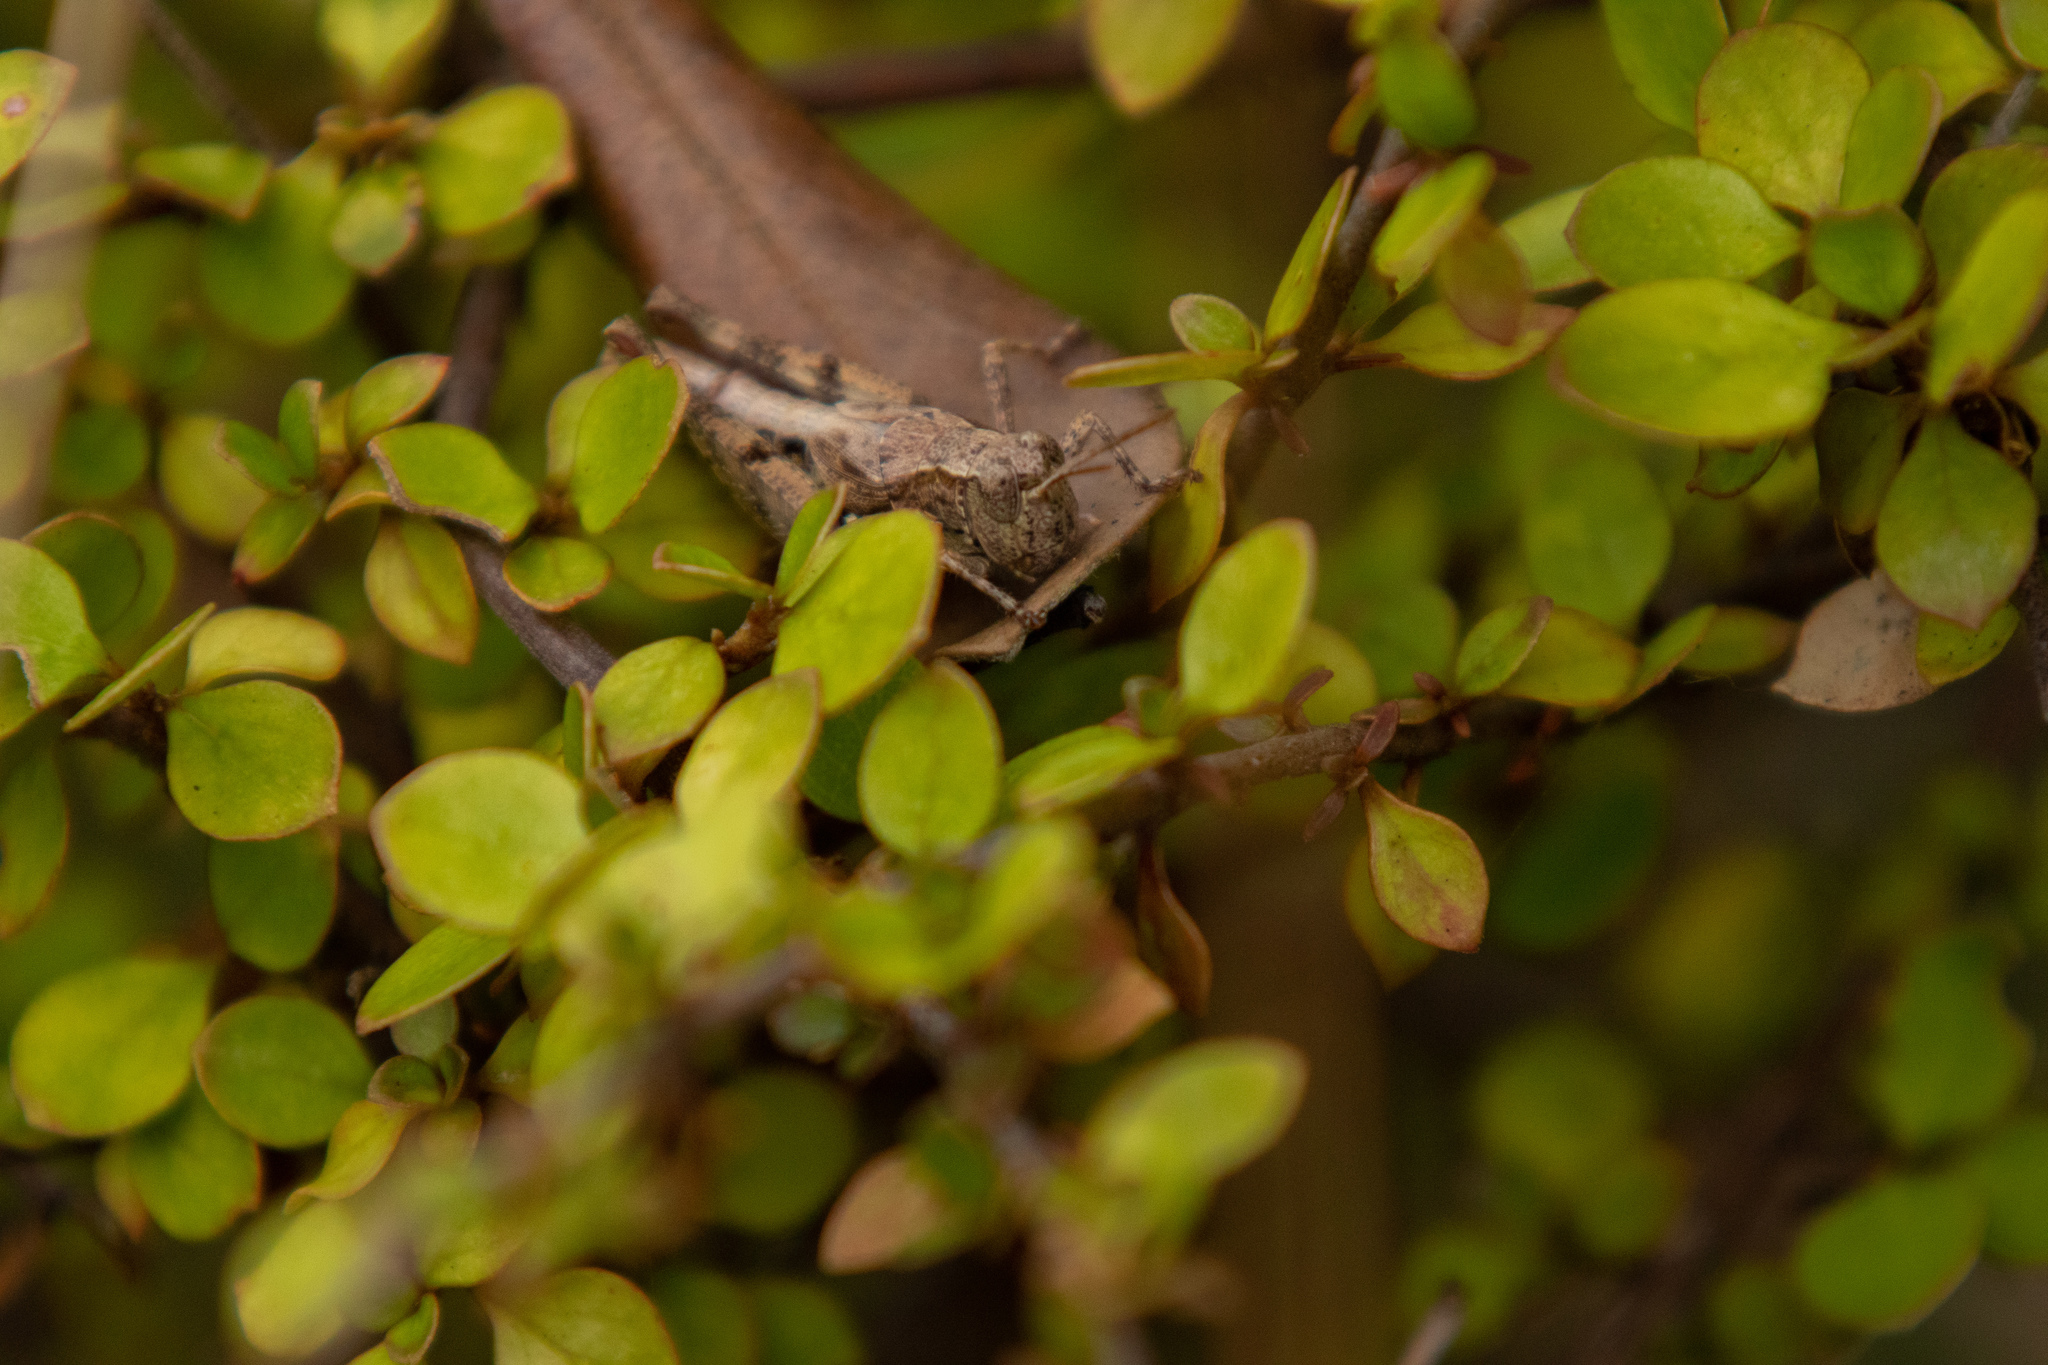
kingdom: Animalia
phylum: Arthropoda
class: Insecta
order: Orthoptera
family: Acrididae
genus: Phaulacridium
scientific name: Phaulacridium marginale
